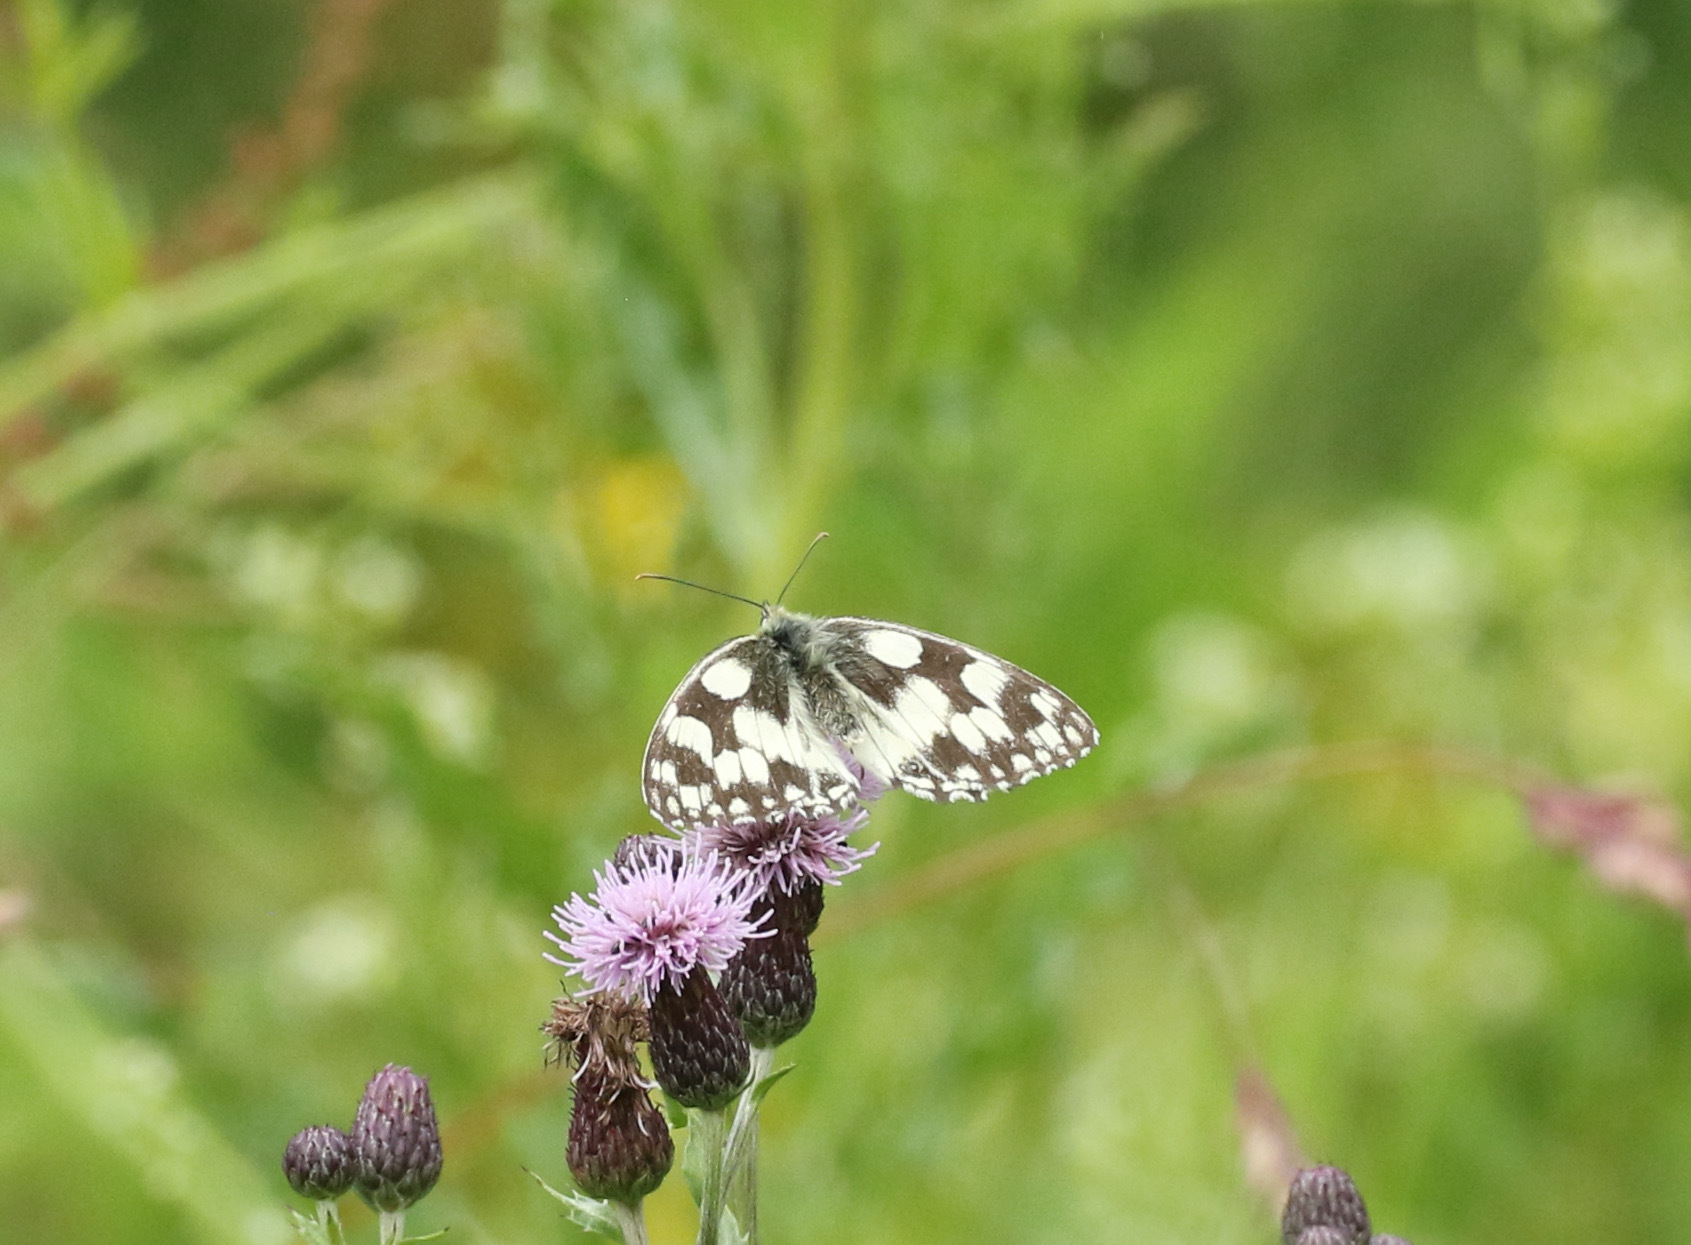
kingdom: Animalia
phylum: Arthropoda
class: Insecta
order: Lepidoptera
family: Nymphalidae
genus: Melanargia
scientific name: Melanargia galathea
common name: Marbled white
